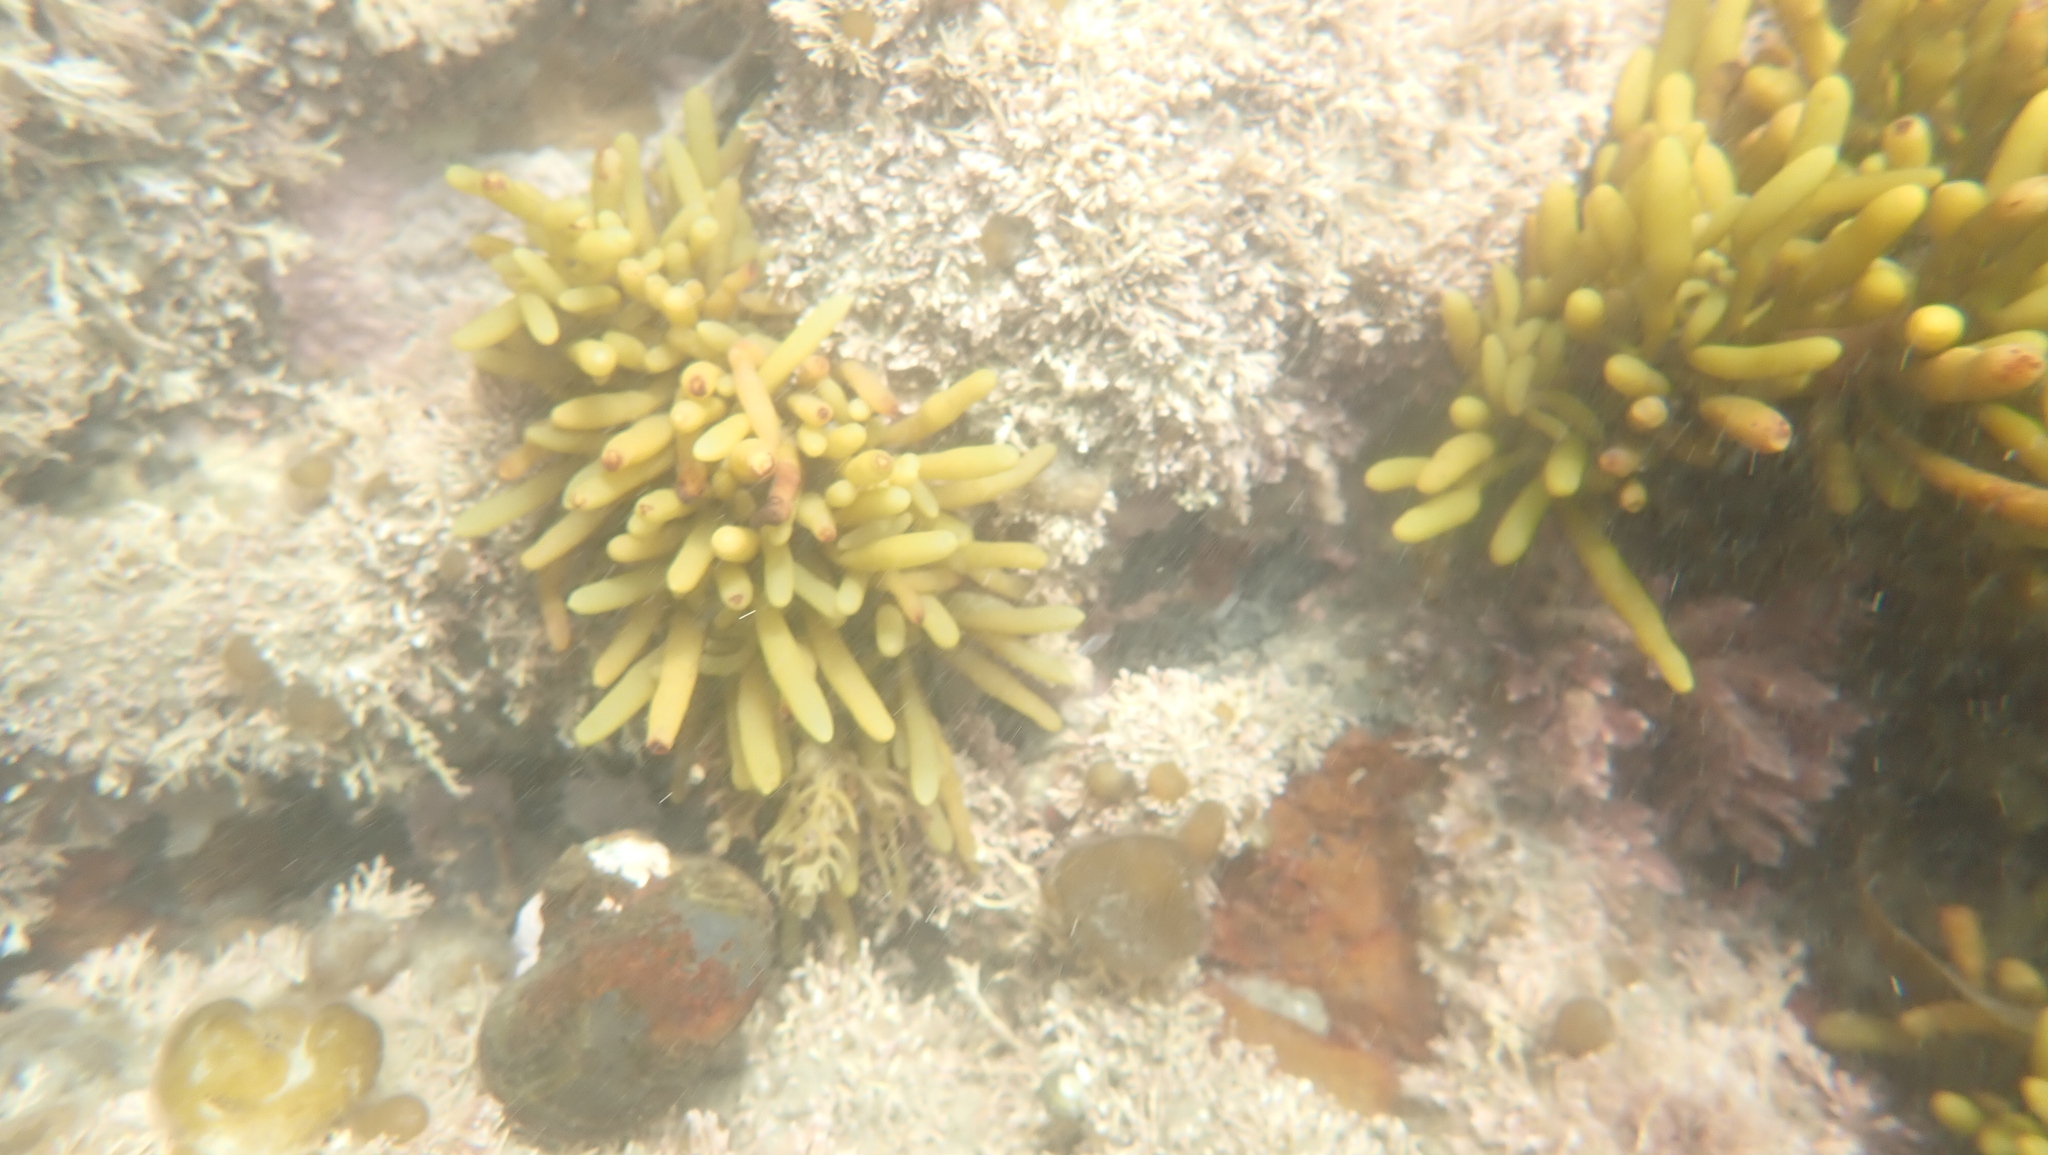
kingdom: Chromista
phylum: Ochrophyta
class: Phaeophyceae
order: Fucales
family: Sargassaceae
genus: Cystophora
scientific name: Cystophora torulosa
